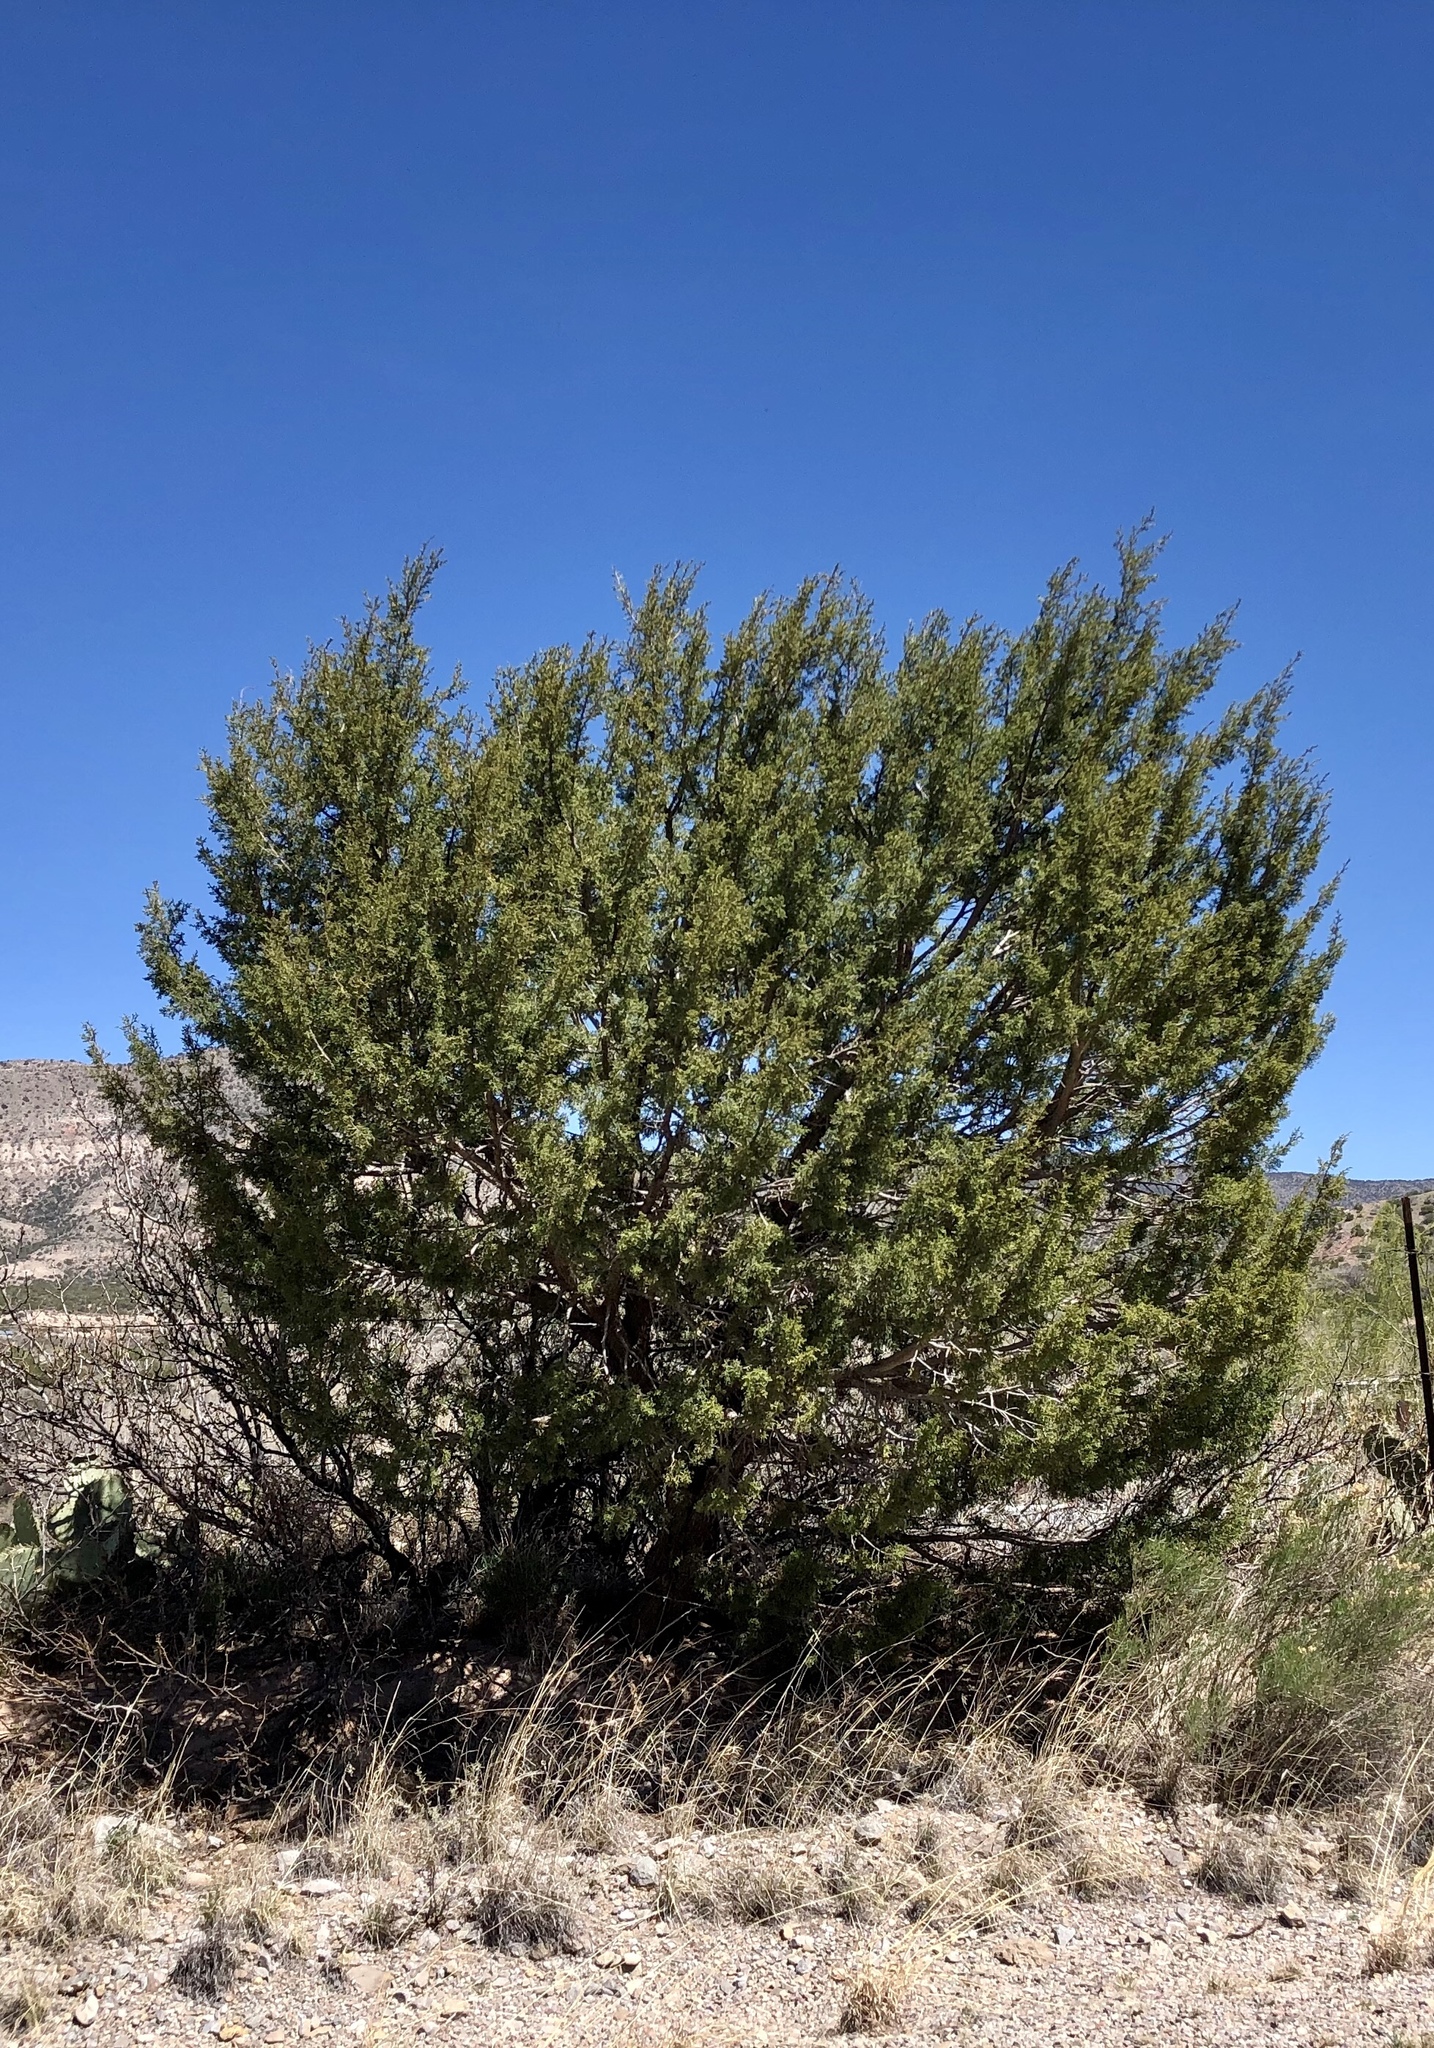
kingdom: Plantae
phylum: Tracheophyta
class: Pinopsida
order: Pinales
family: Cupressaceae
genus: Juniperus
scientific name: Juniperus monosperma
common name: One-seed juniper
